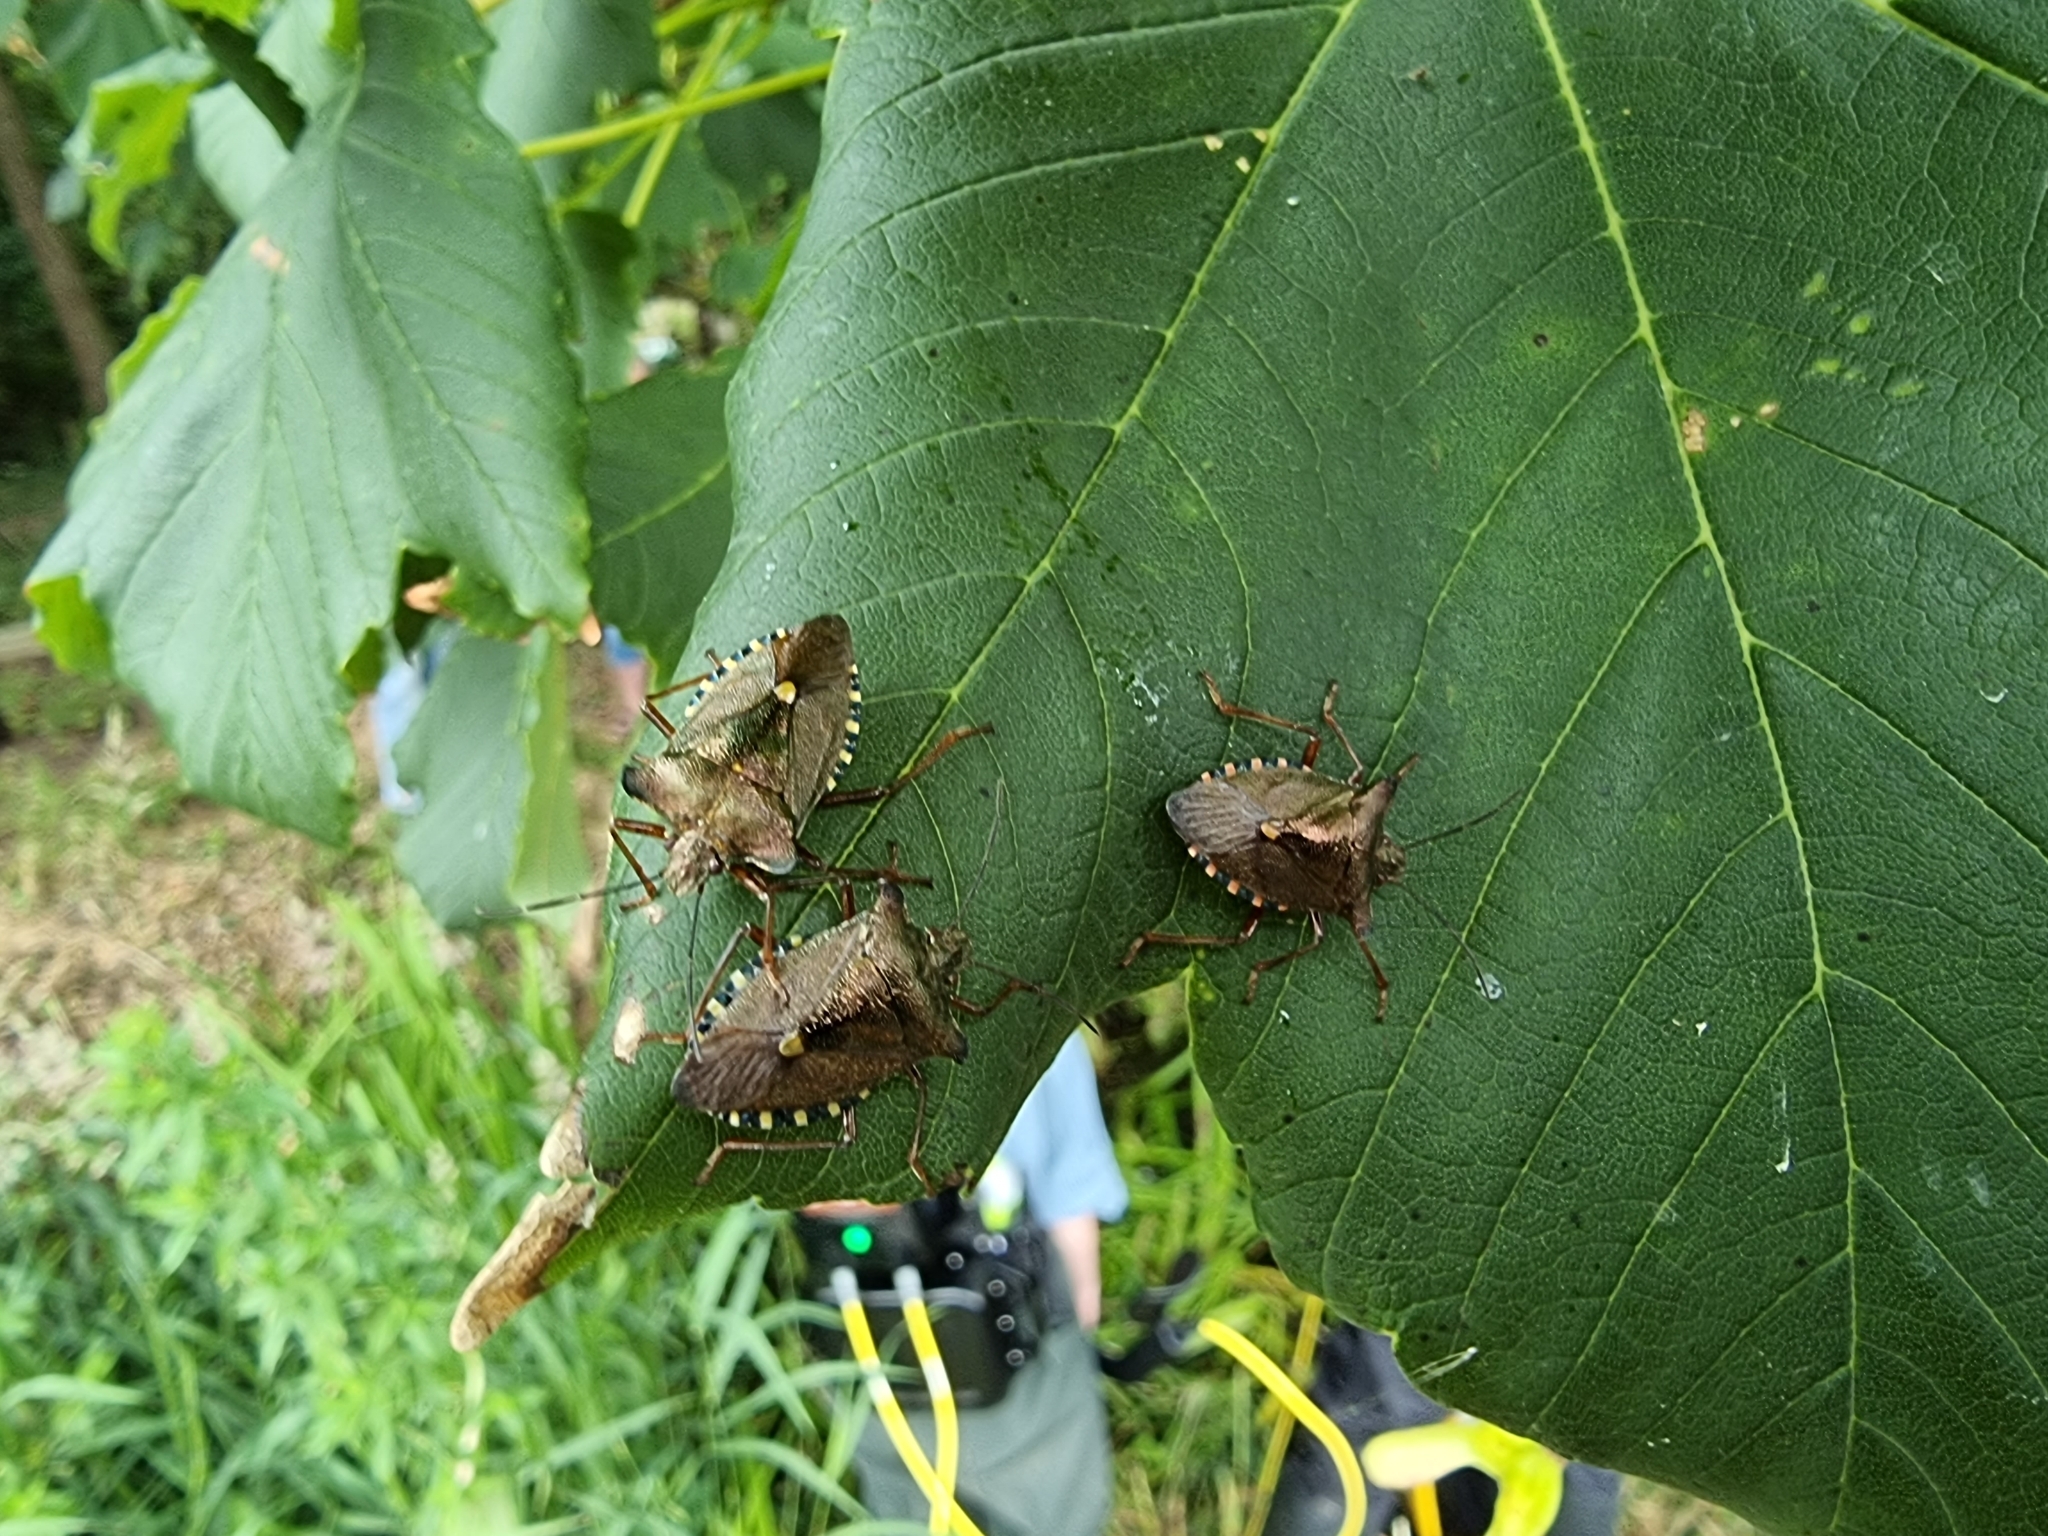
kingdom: Animalia
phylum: Arthropoda
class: Insecta
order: Hemiptera
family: Pentatomidae
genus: Pentatoma
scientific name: Pentatoma rufipes
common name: Forest bug
